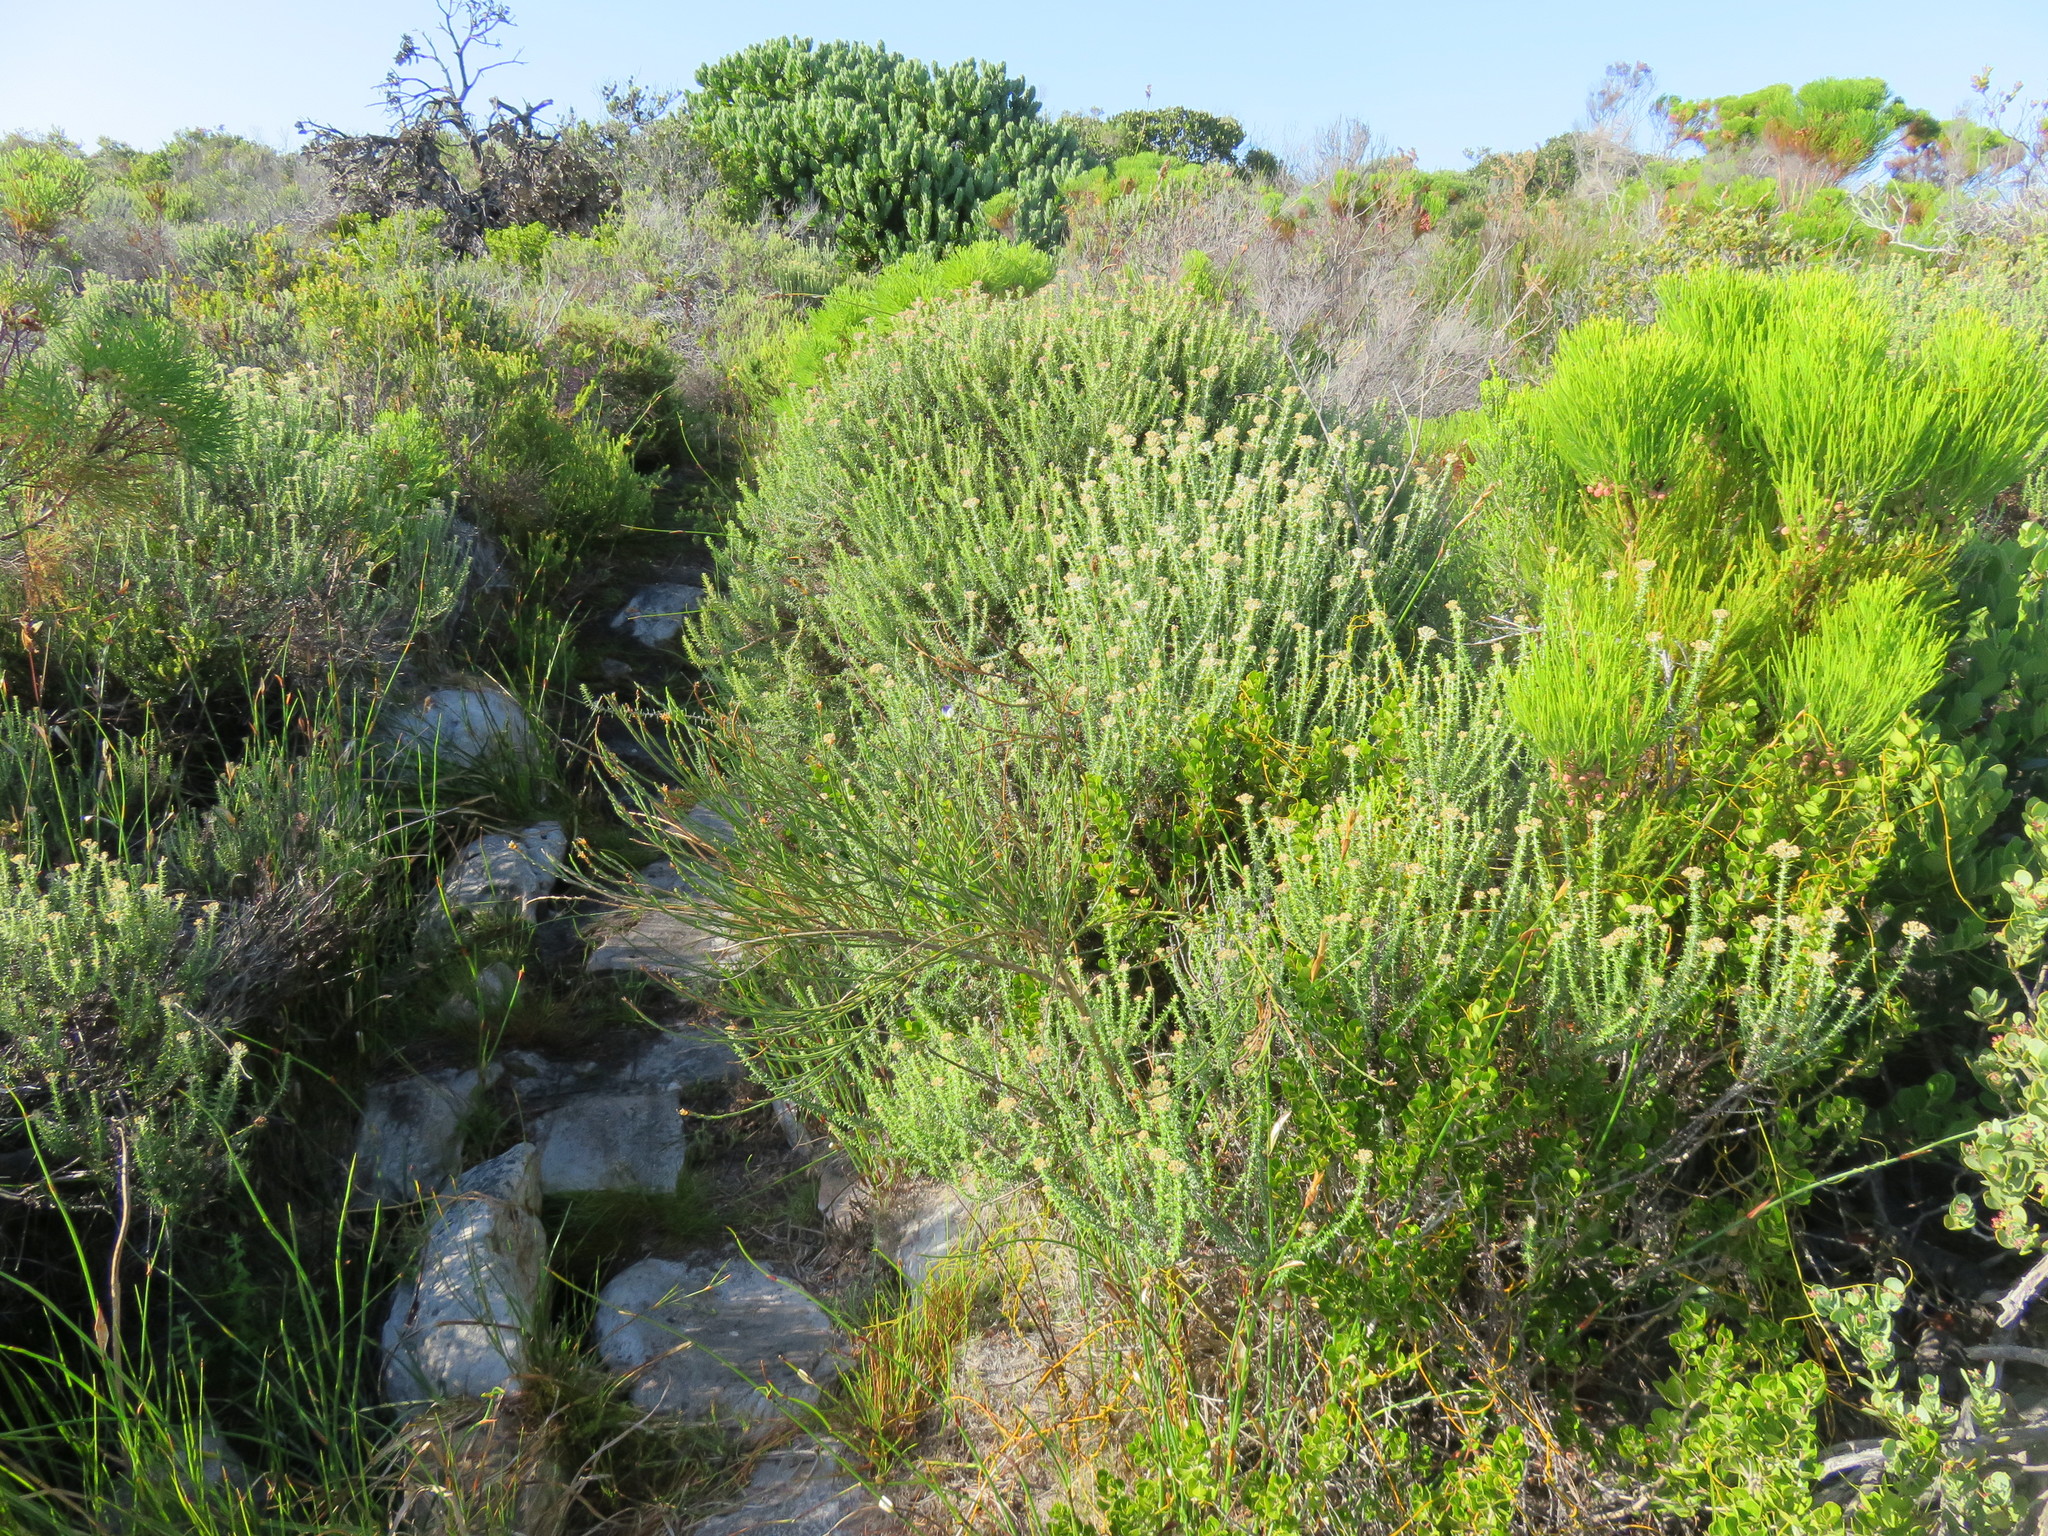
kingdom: Plantae
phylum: Tracheophyta
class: Magnoliopsida
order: Asterales
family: Asteraceae
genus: Metalasia
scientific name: Metalasia densa
